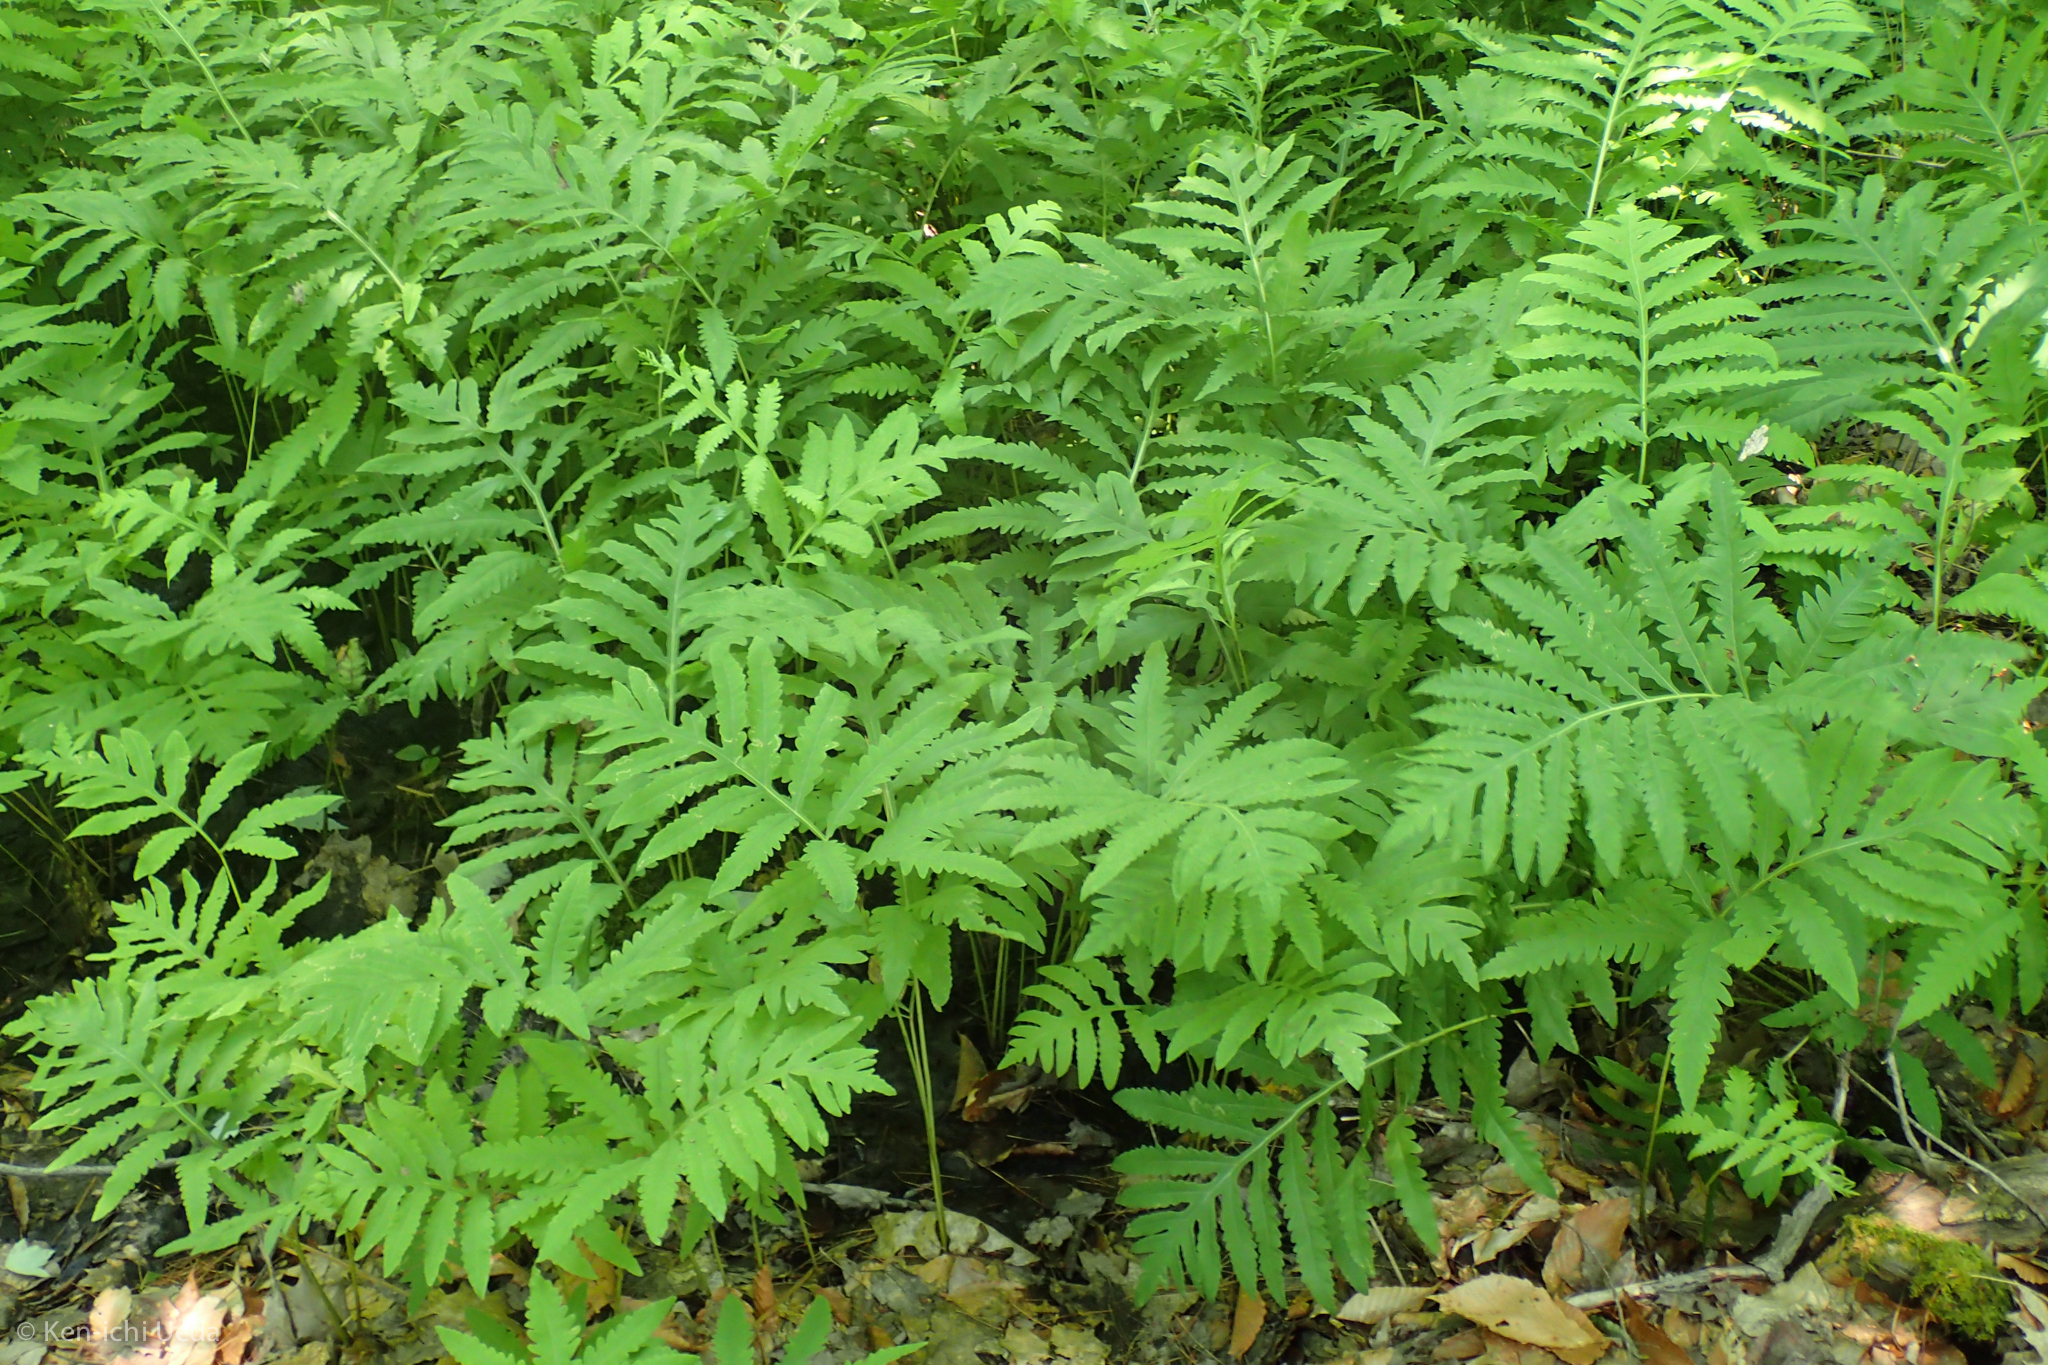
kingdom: Plantae
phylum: Tracheophyta
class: Polypodiopsida
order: Polypodiales
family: Onocleaceae
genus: Onoclea
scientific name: Onoclea sensibilis
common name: Sensitive fern
